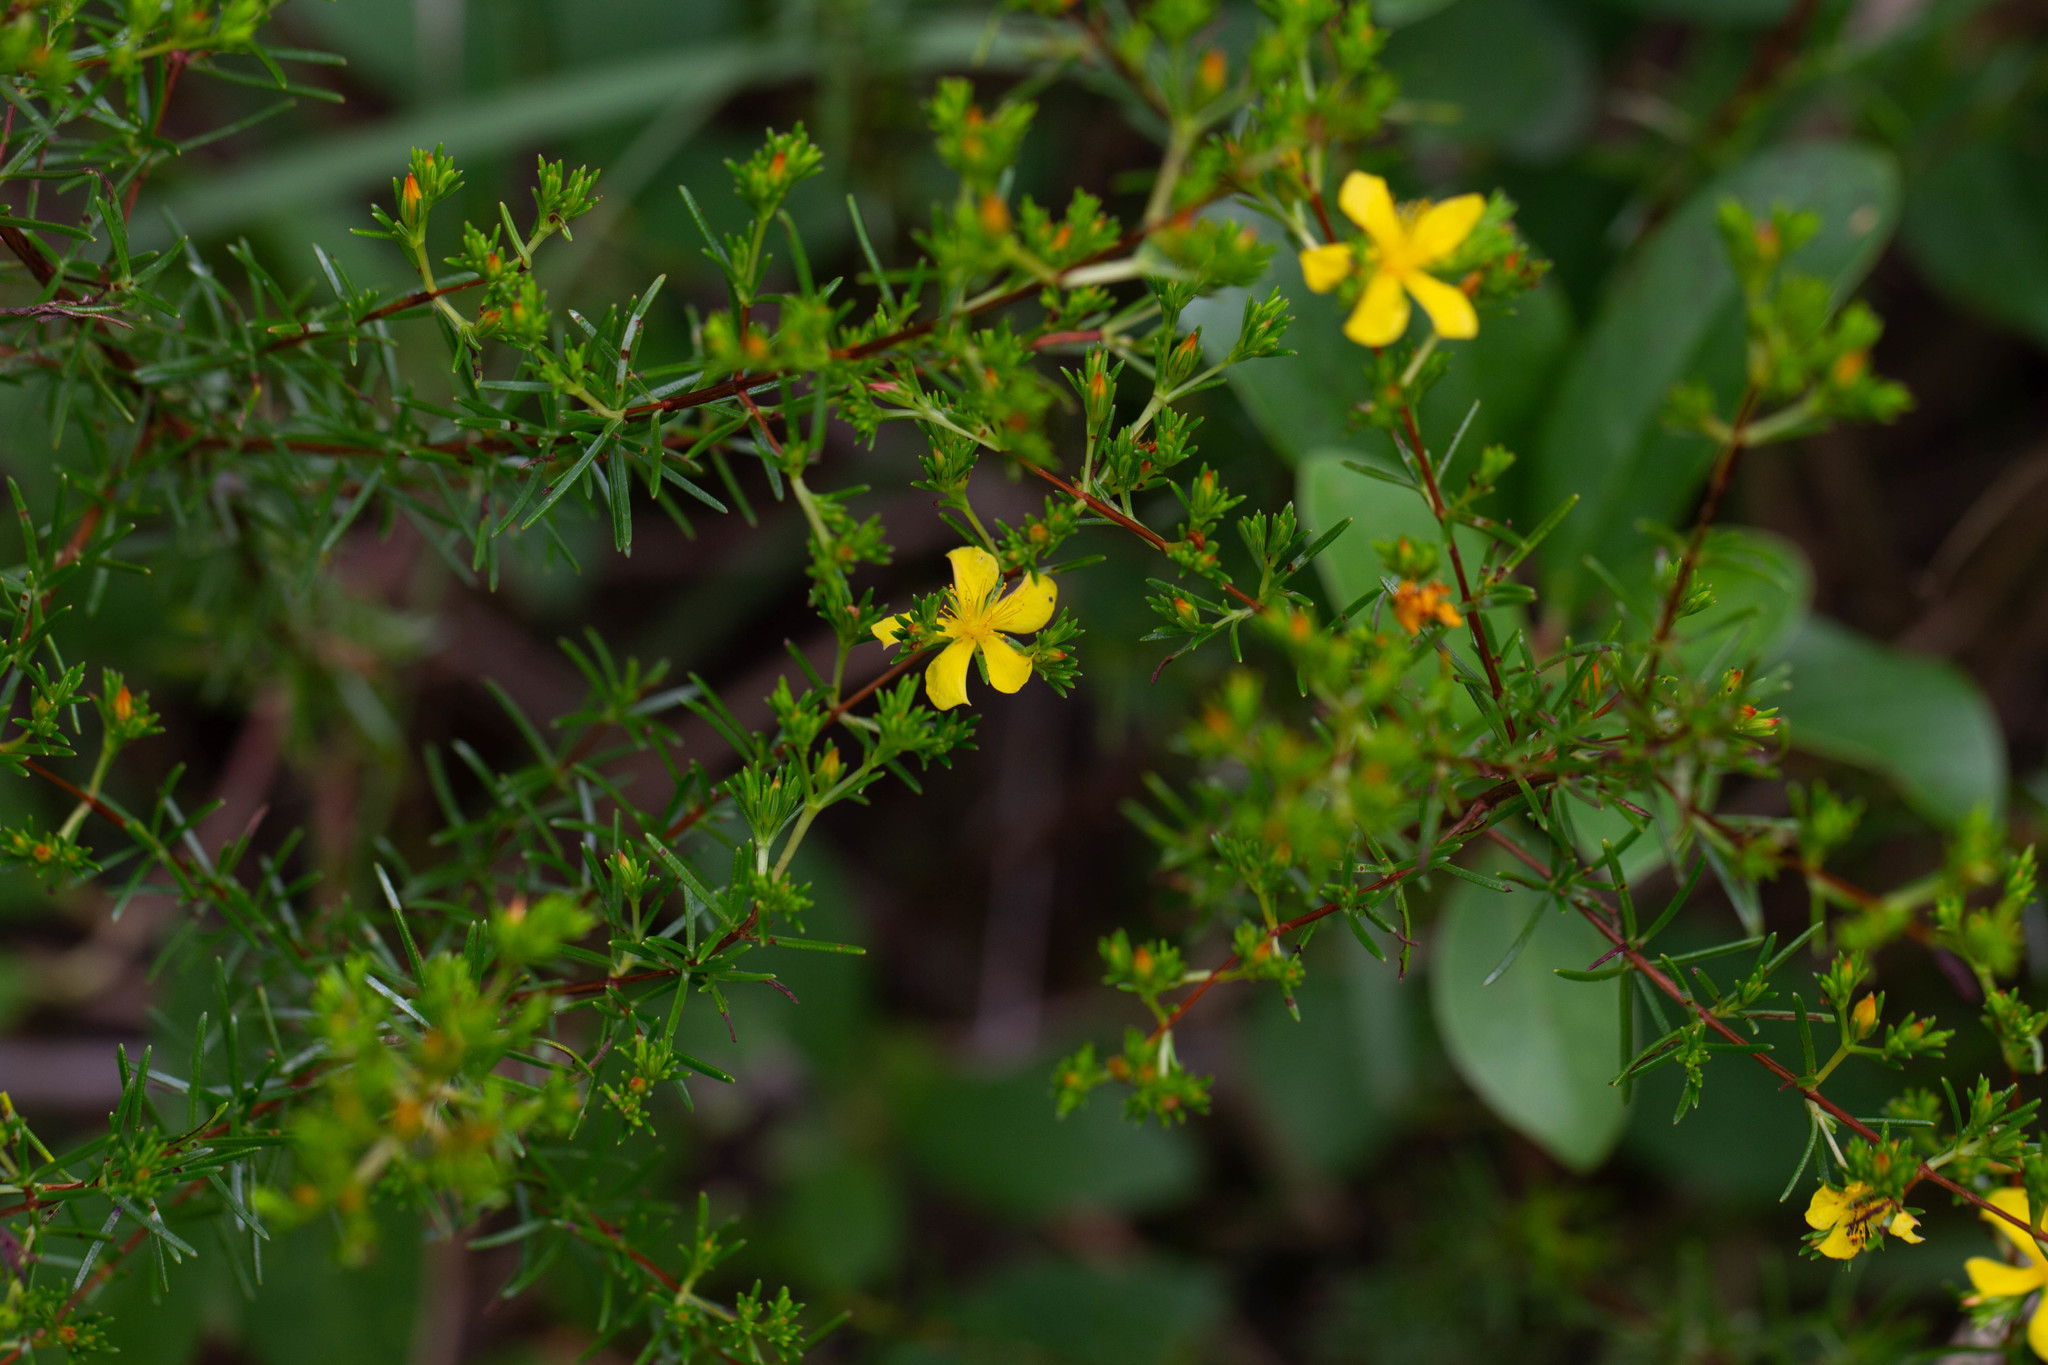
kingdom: Plantae
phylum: Tracheophyta
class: Magnoliopsida
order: Malpighiales
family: Hypericaceae
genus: Hypericum
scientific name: Hypericum brachyphyllum
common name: Coastal plain st. john's-wort
